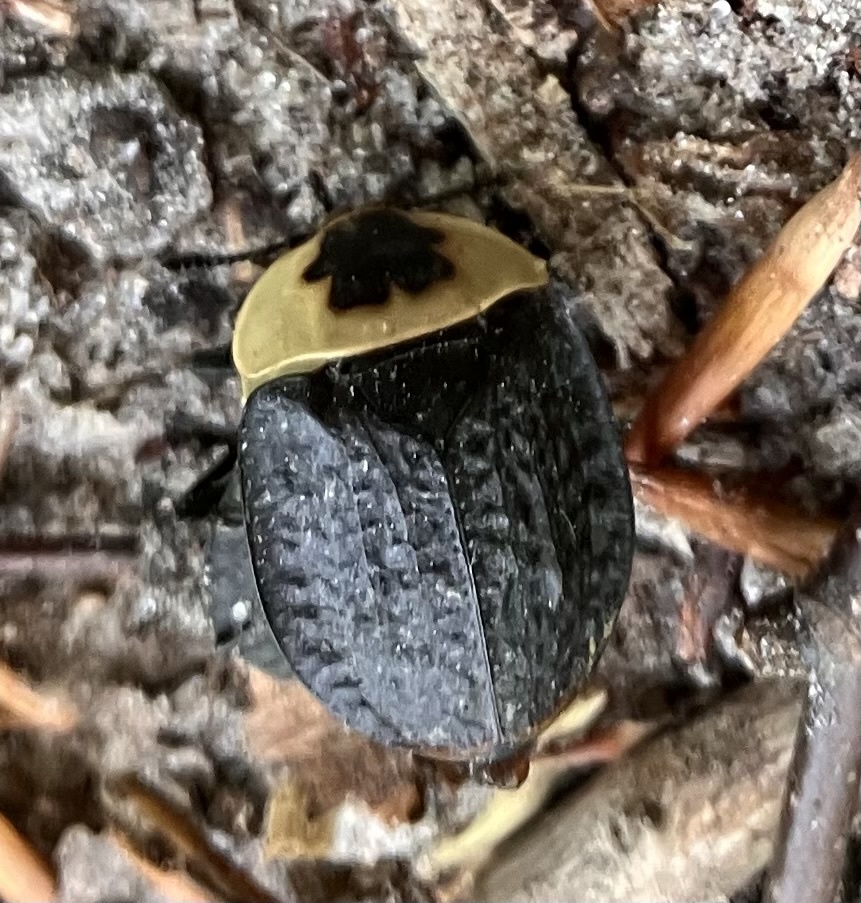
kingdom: Animalia
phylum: Arthropoda
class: Insecta
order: Coleoptera
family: Staphylinidae
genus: Necrophila
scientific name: Necrophila americana
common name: American carrion beetle
